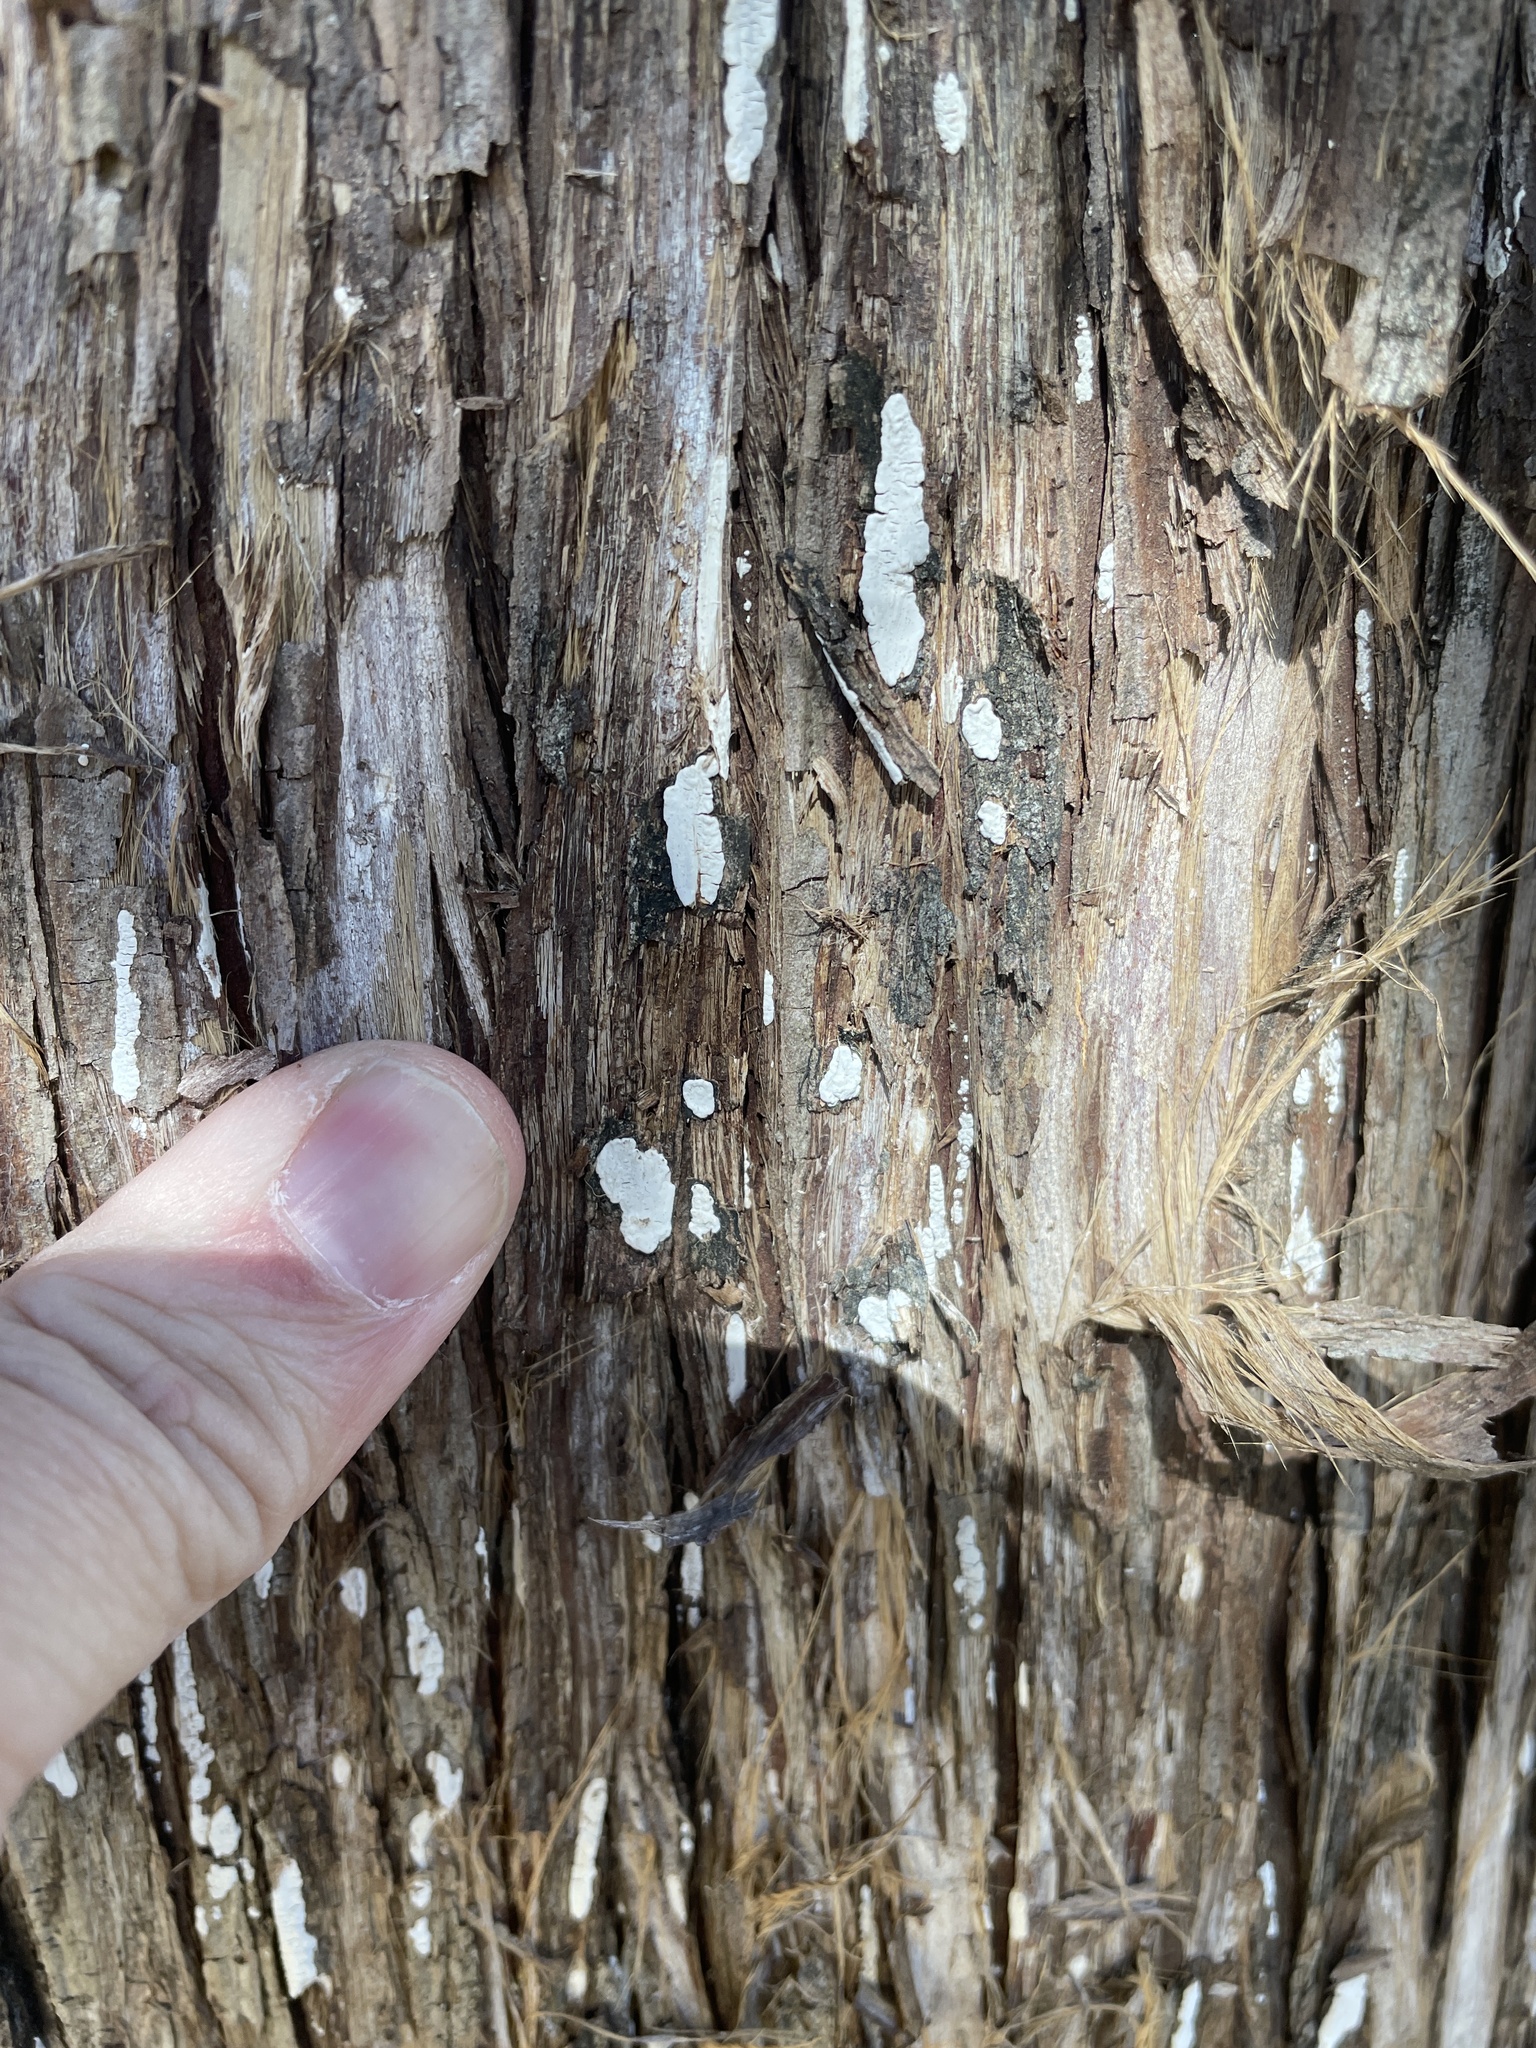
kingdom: Fungi
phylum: Basidiomycota
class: Agaricomycetes
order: Agaricales
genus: Dendrothele
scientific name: Dendrothele nivosa
